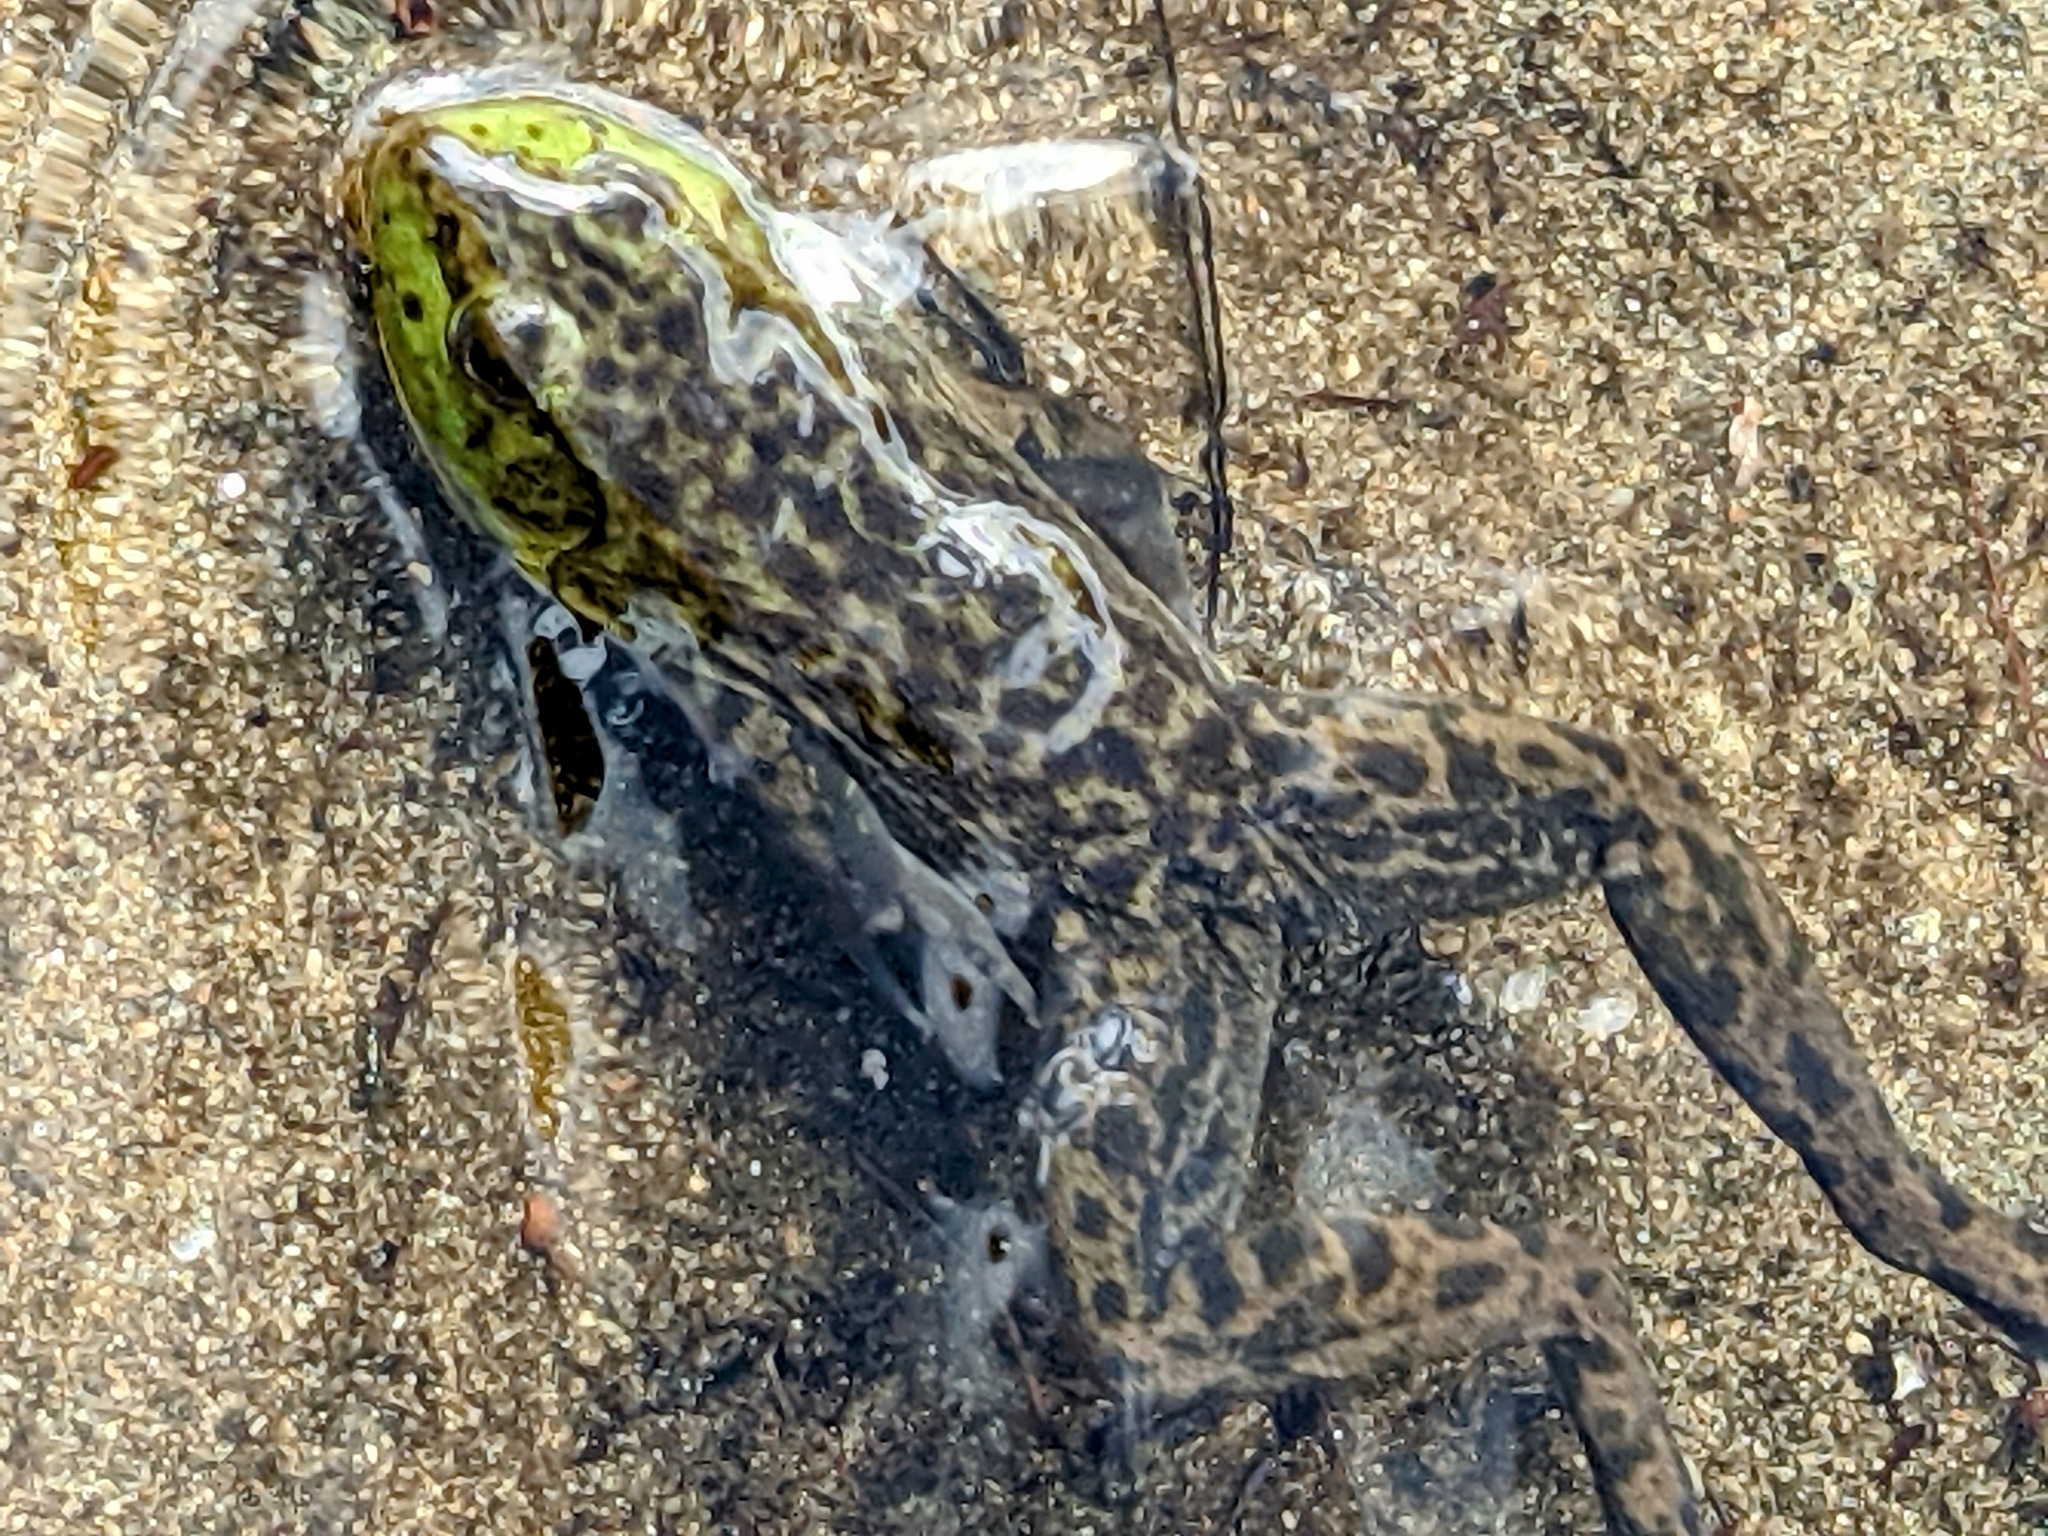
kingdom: Animalia
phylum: Chordata
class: Amphibia
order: Anura
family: Ranidae
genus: Lithobates
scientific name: Lithobates catesbeianus
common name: American bullfrog
